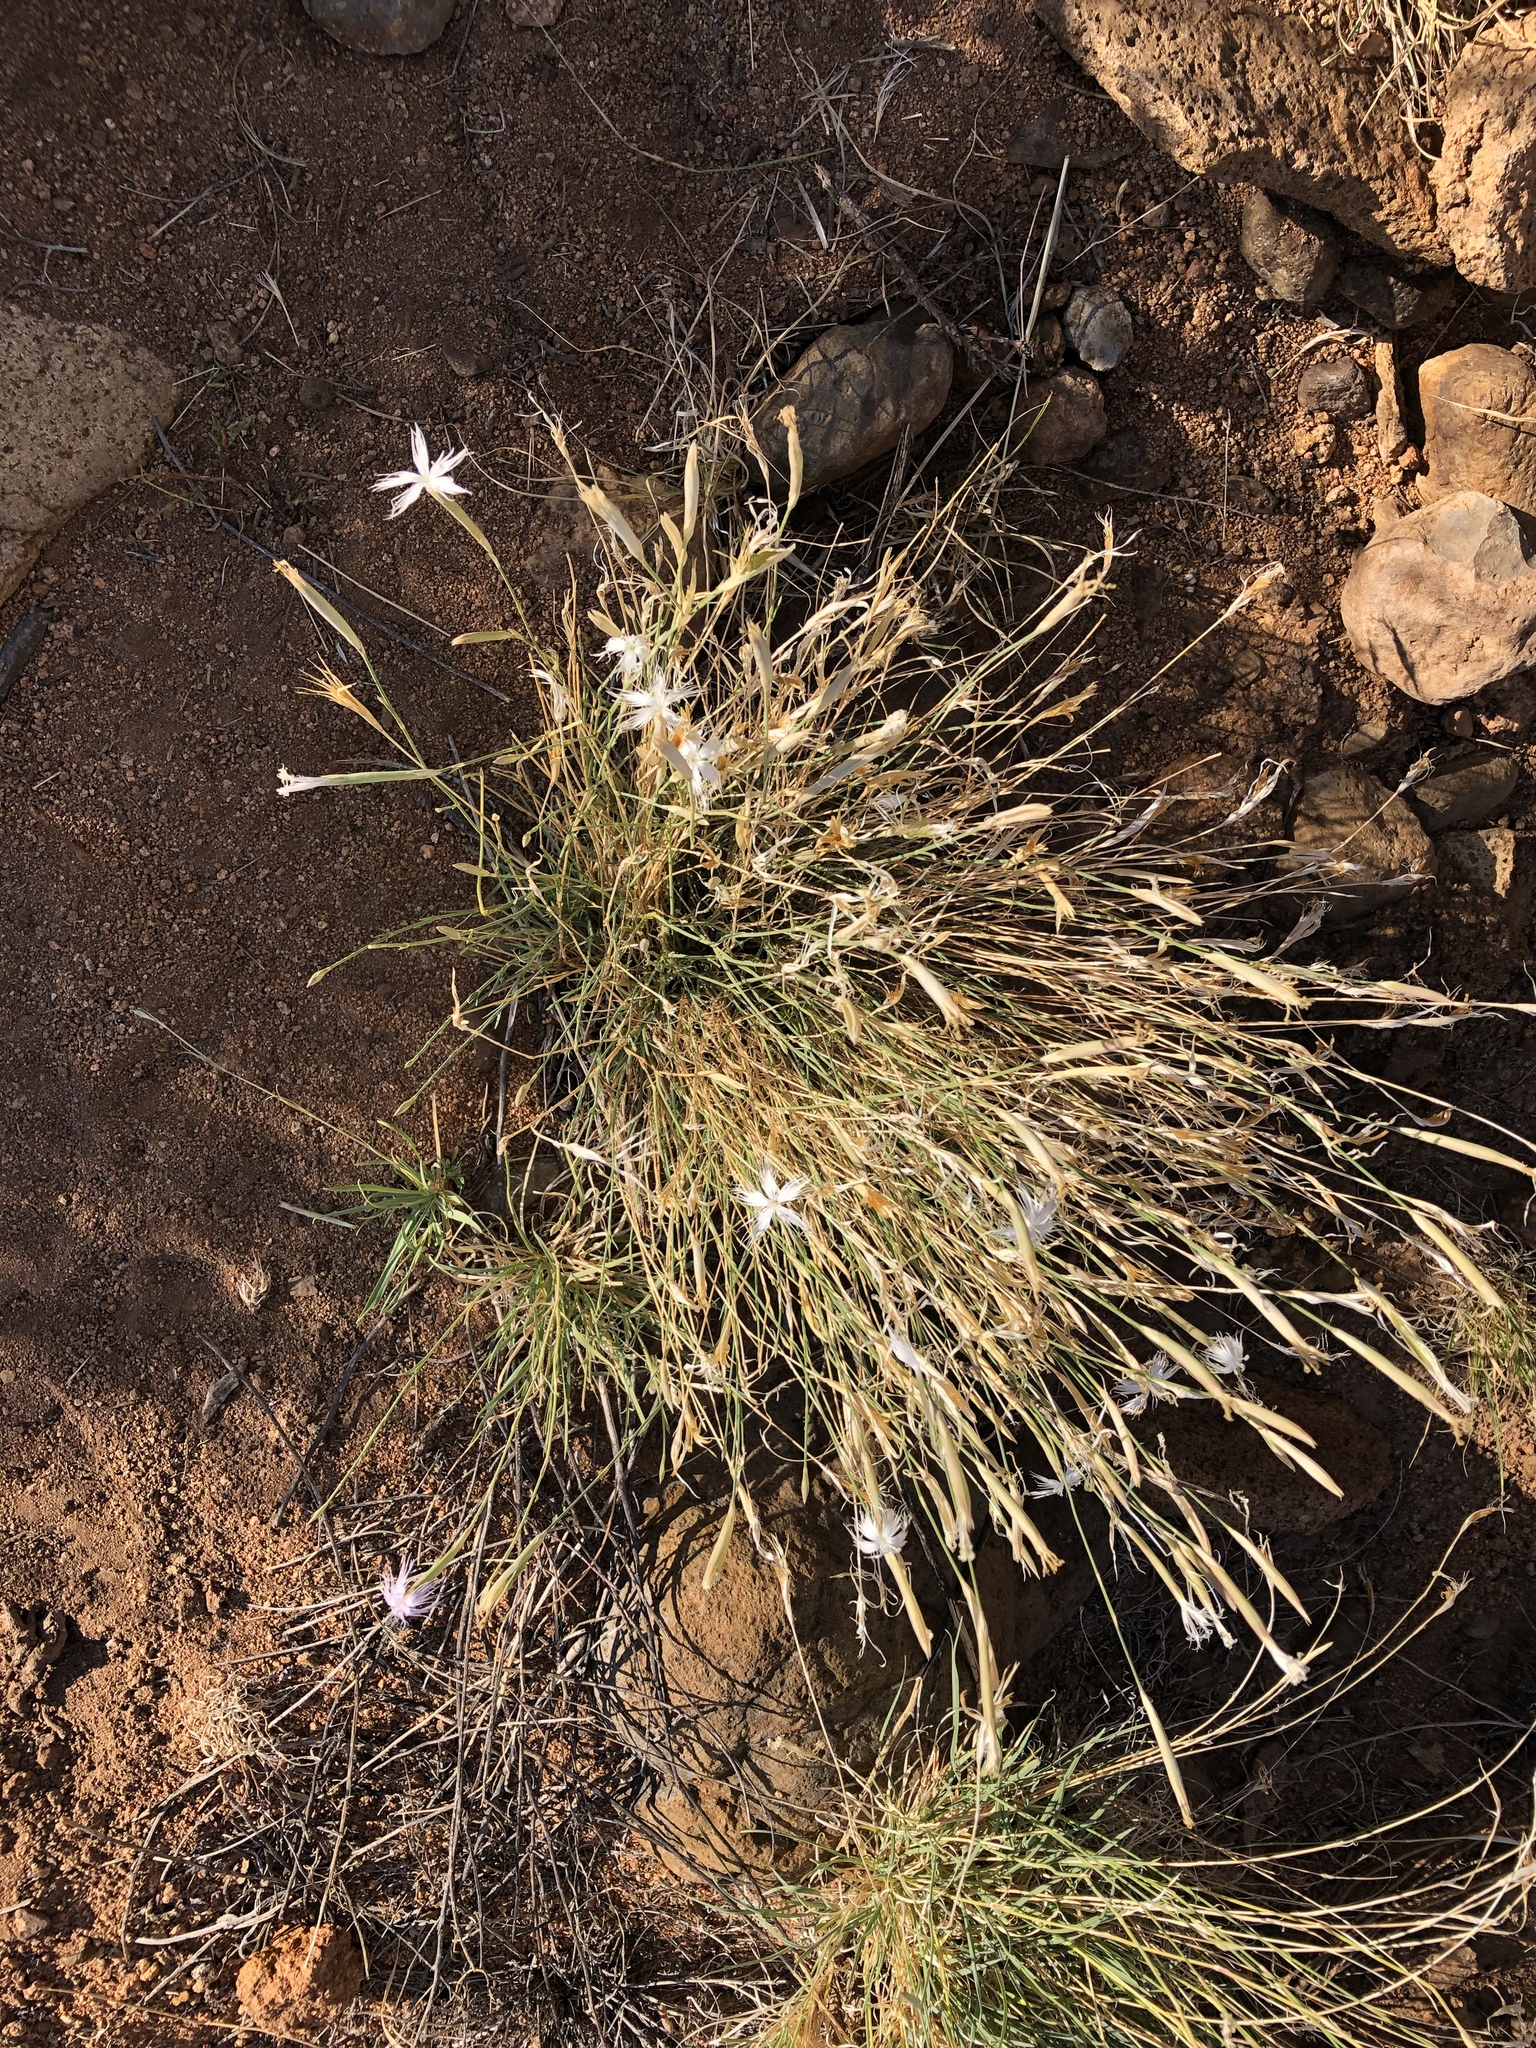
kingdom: Plantae
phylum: Tracheophyta
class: Magnoliopsida
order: Caryophyllales
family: Caryophyllaceae
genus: Dianthus
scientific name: Dianthus namaensis
